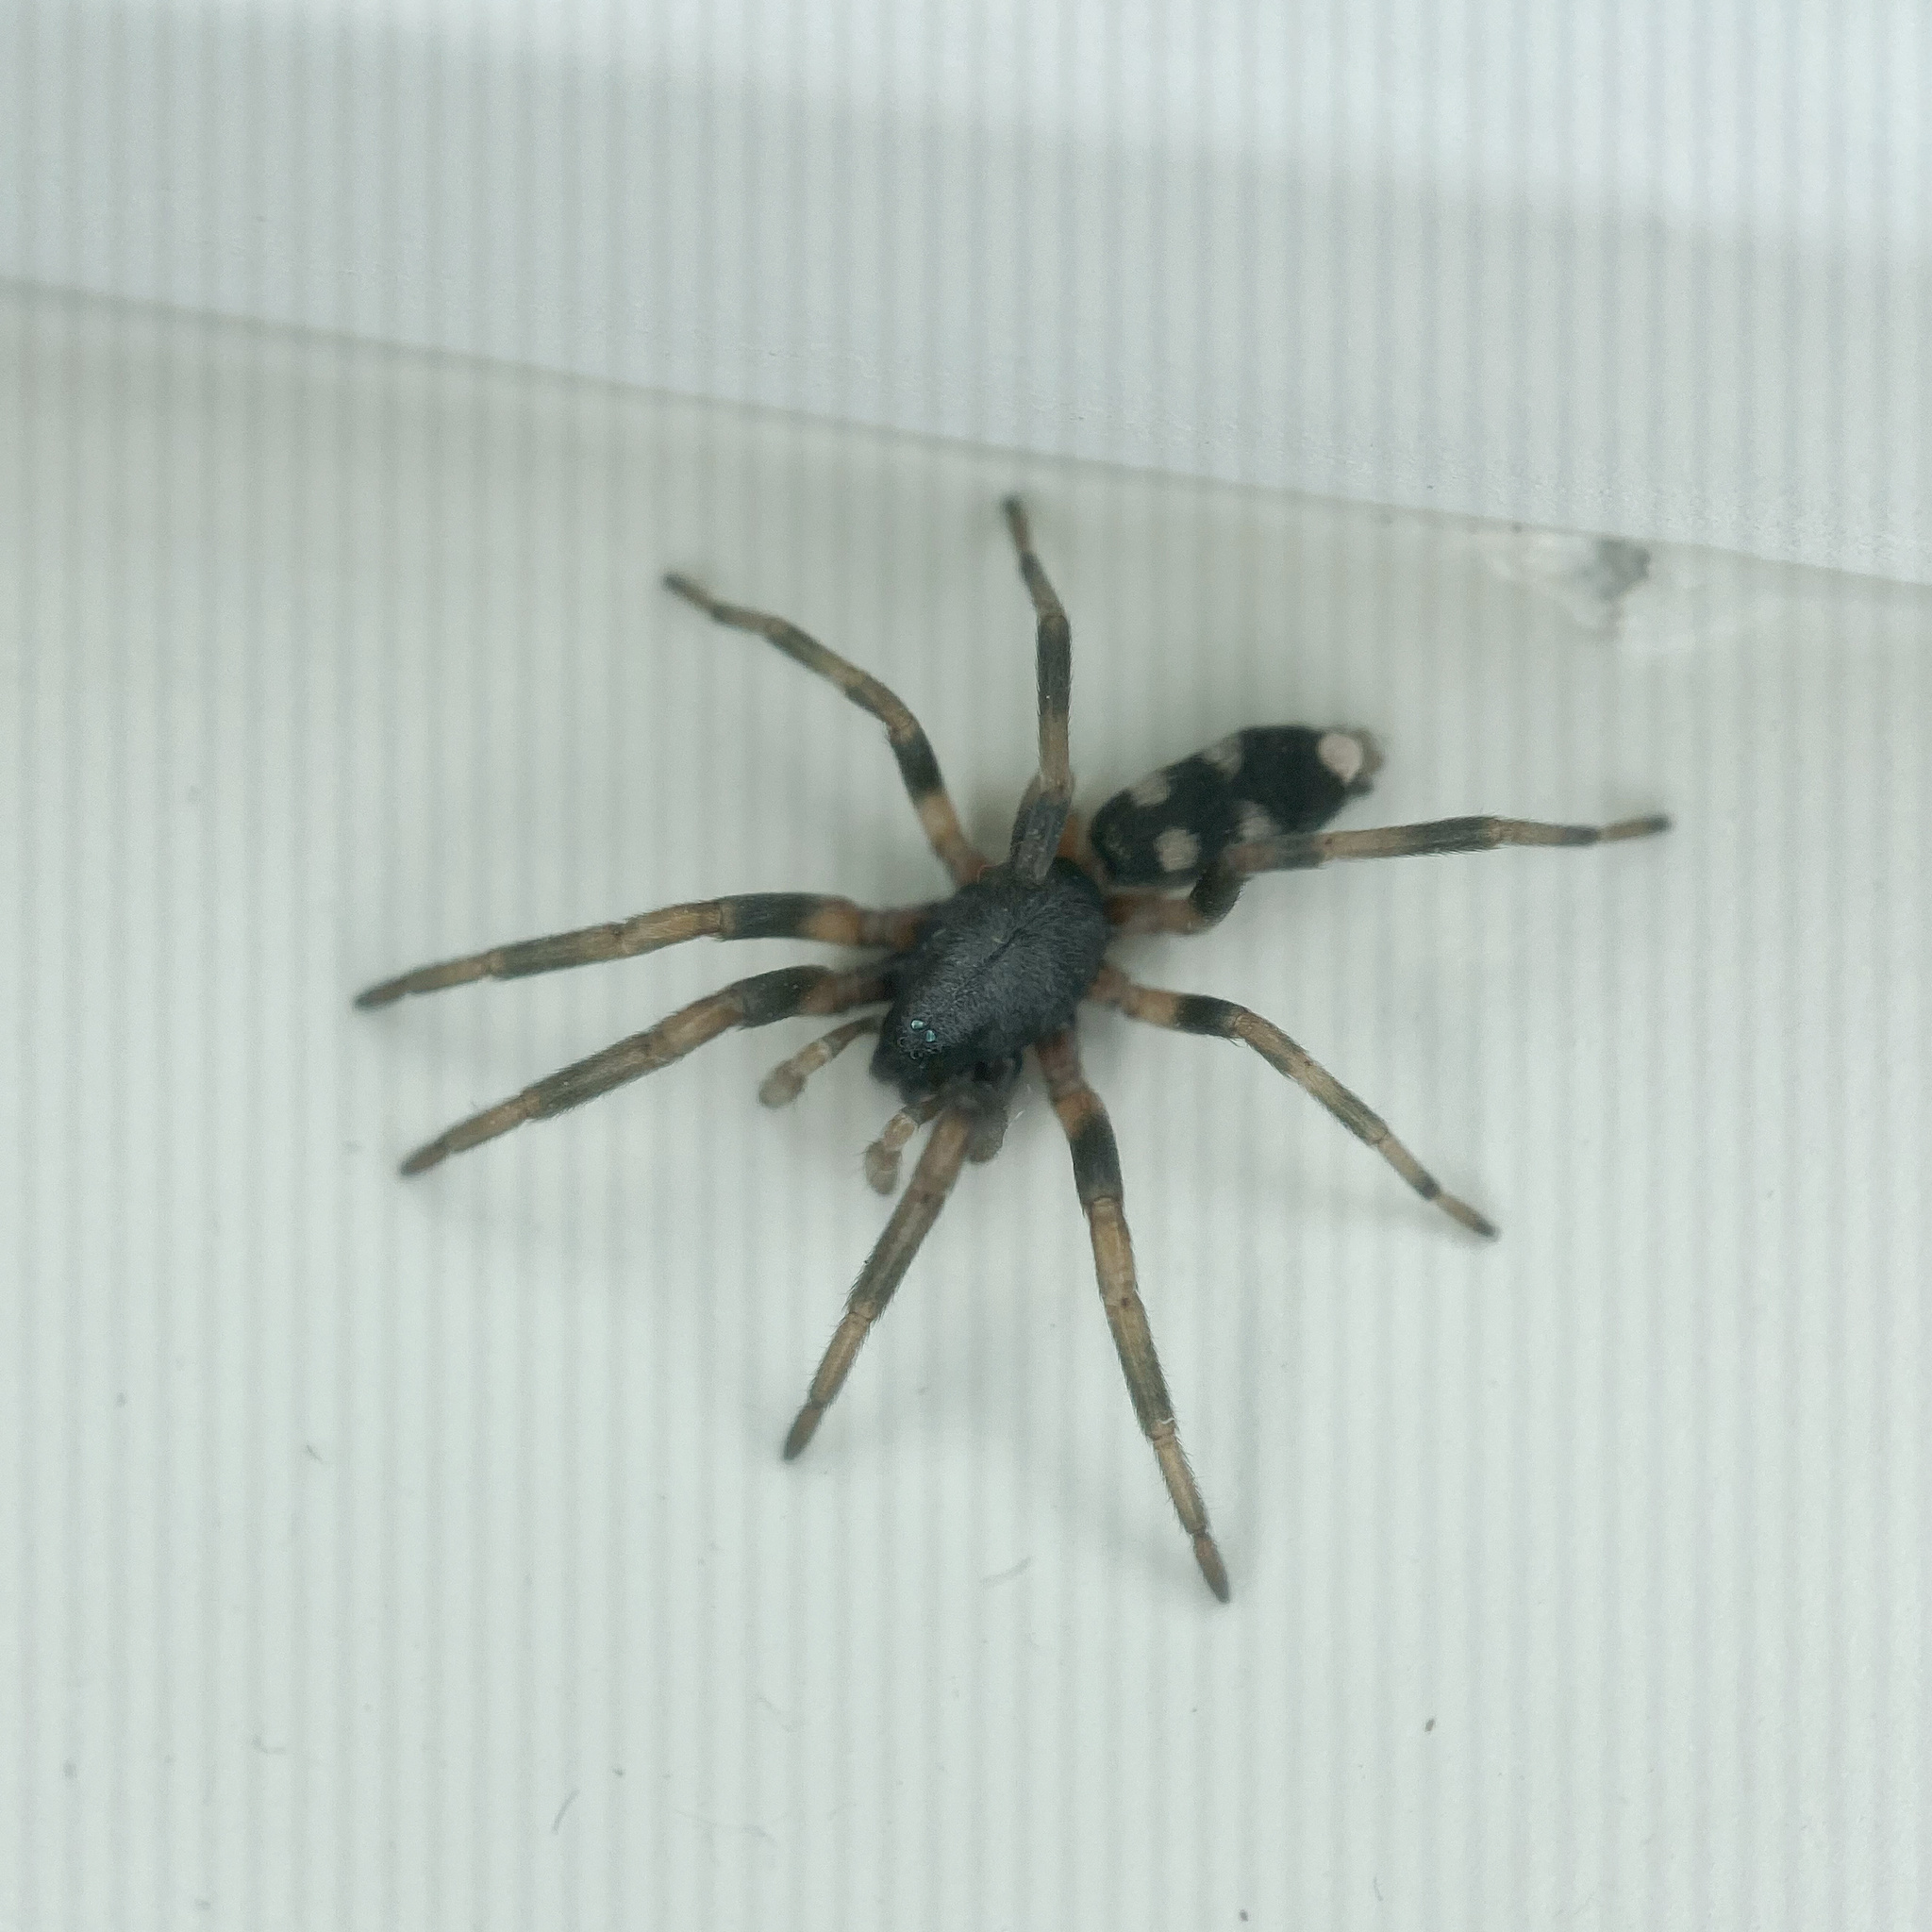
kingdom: Animalia
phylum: Arthropoda
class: Arachnida
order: Araneae
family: Lamponidae
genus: Lampona
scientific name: Lampona cylindrata
